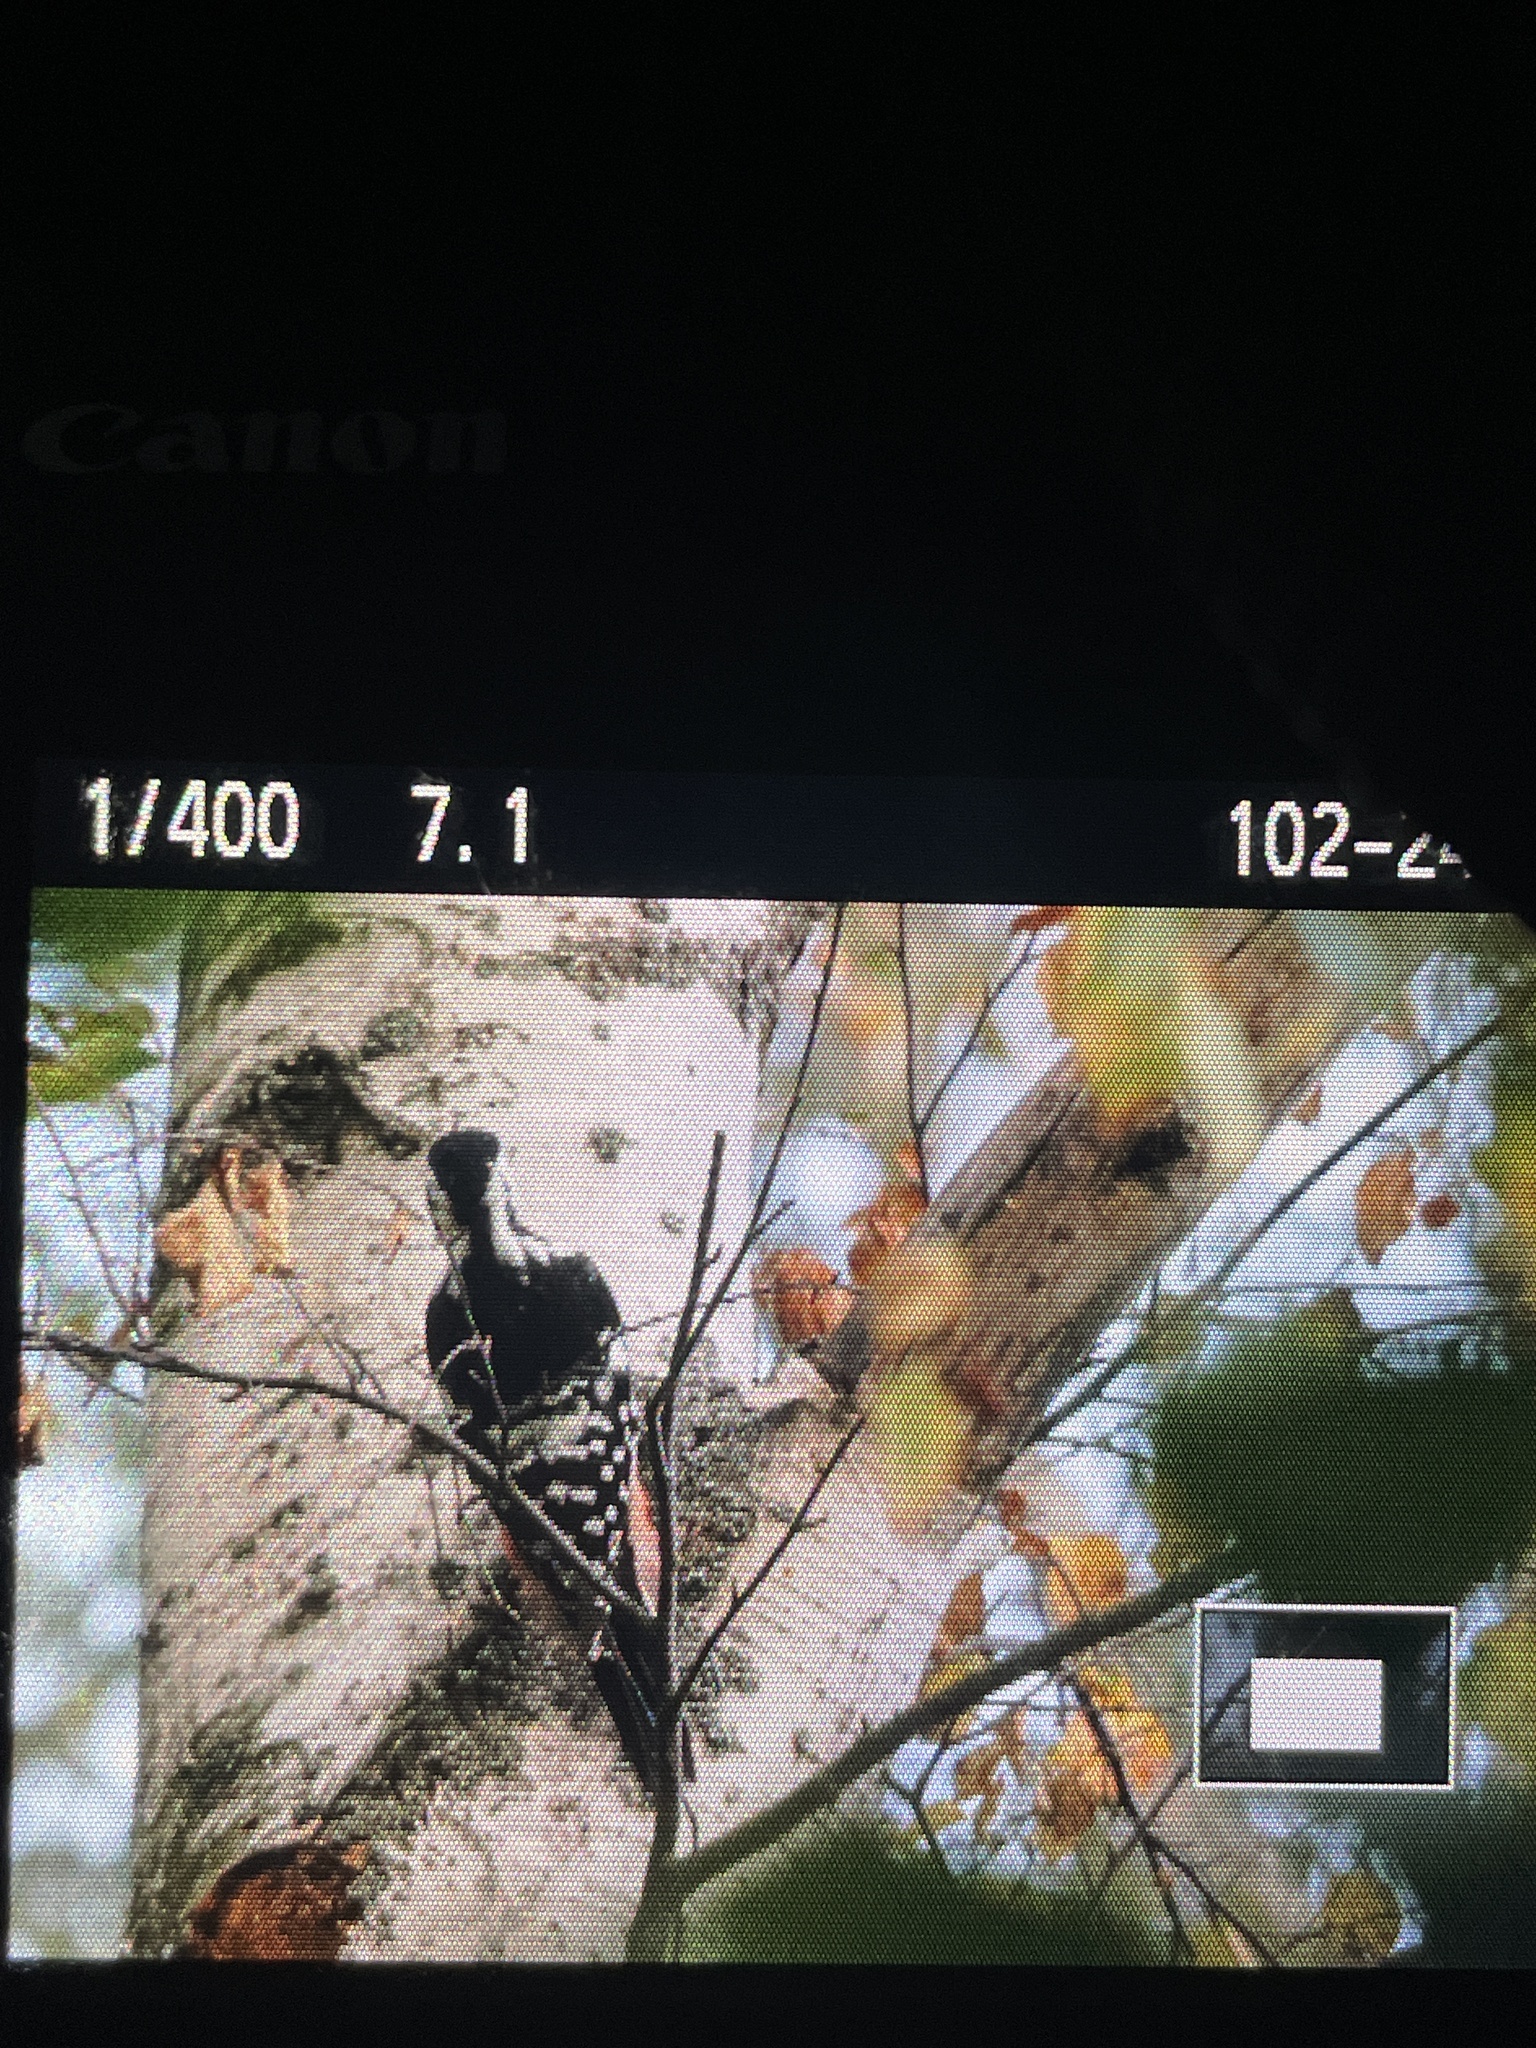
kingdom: Animalia
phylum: Chordata
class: Aves
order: Piciformes
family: Picidae
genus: Dendrocopos
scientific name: Dendrocopos leucotos
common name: White-backed woodpecker
